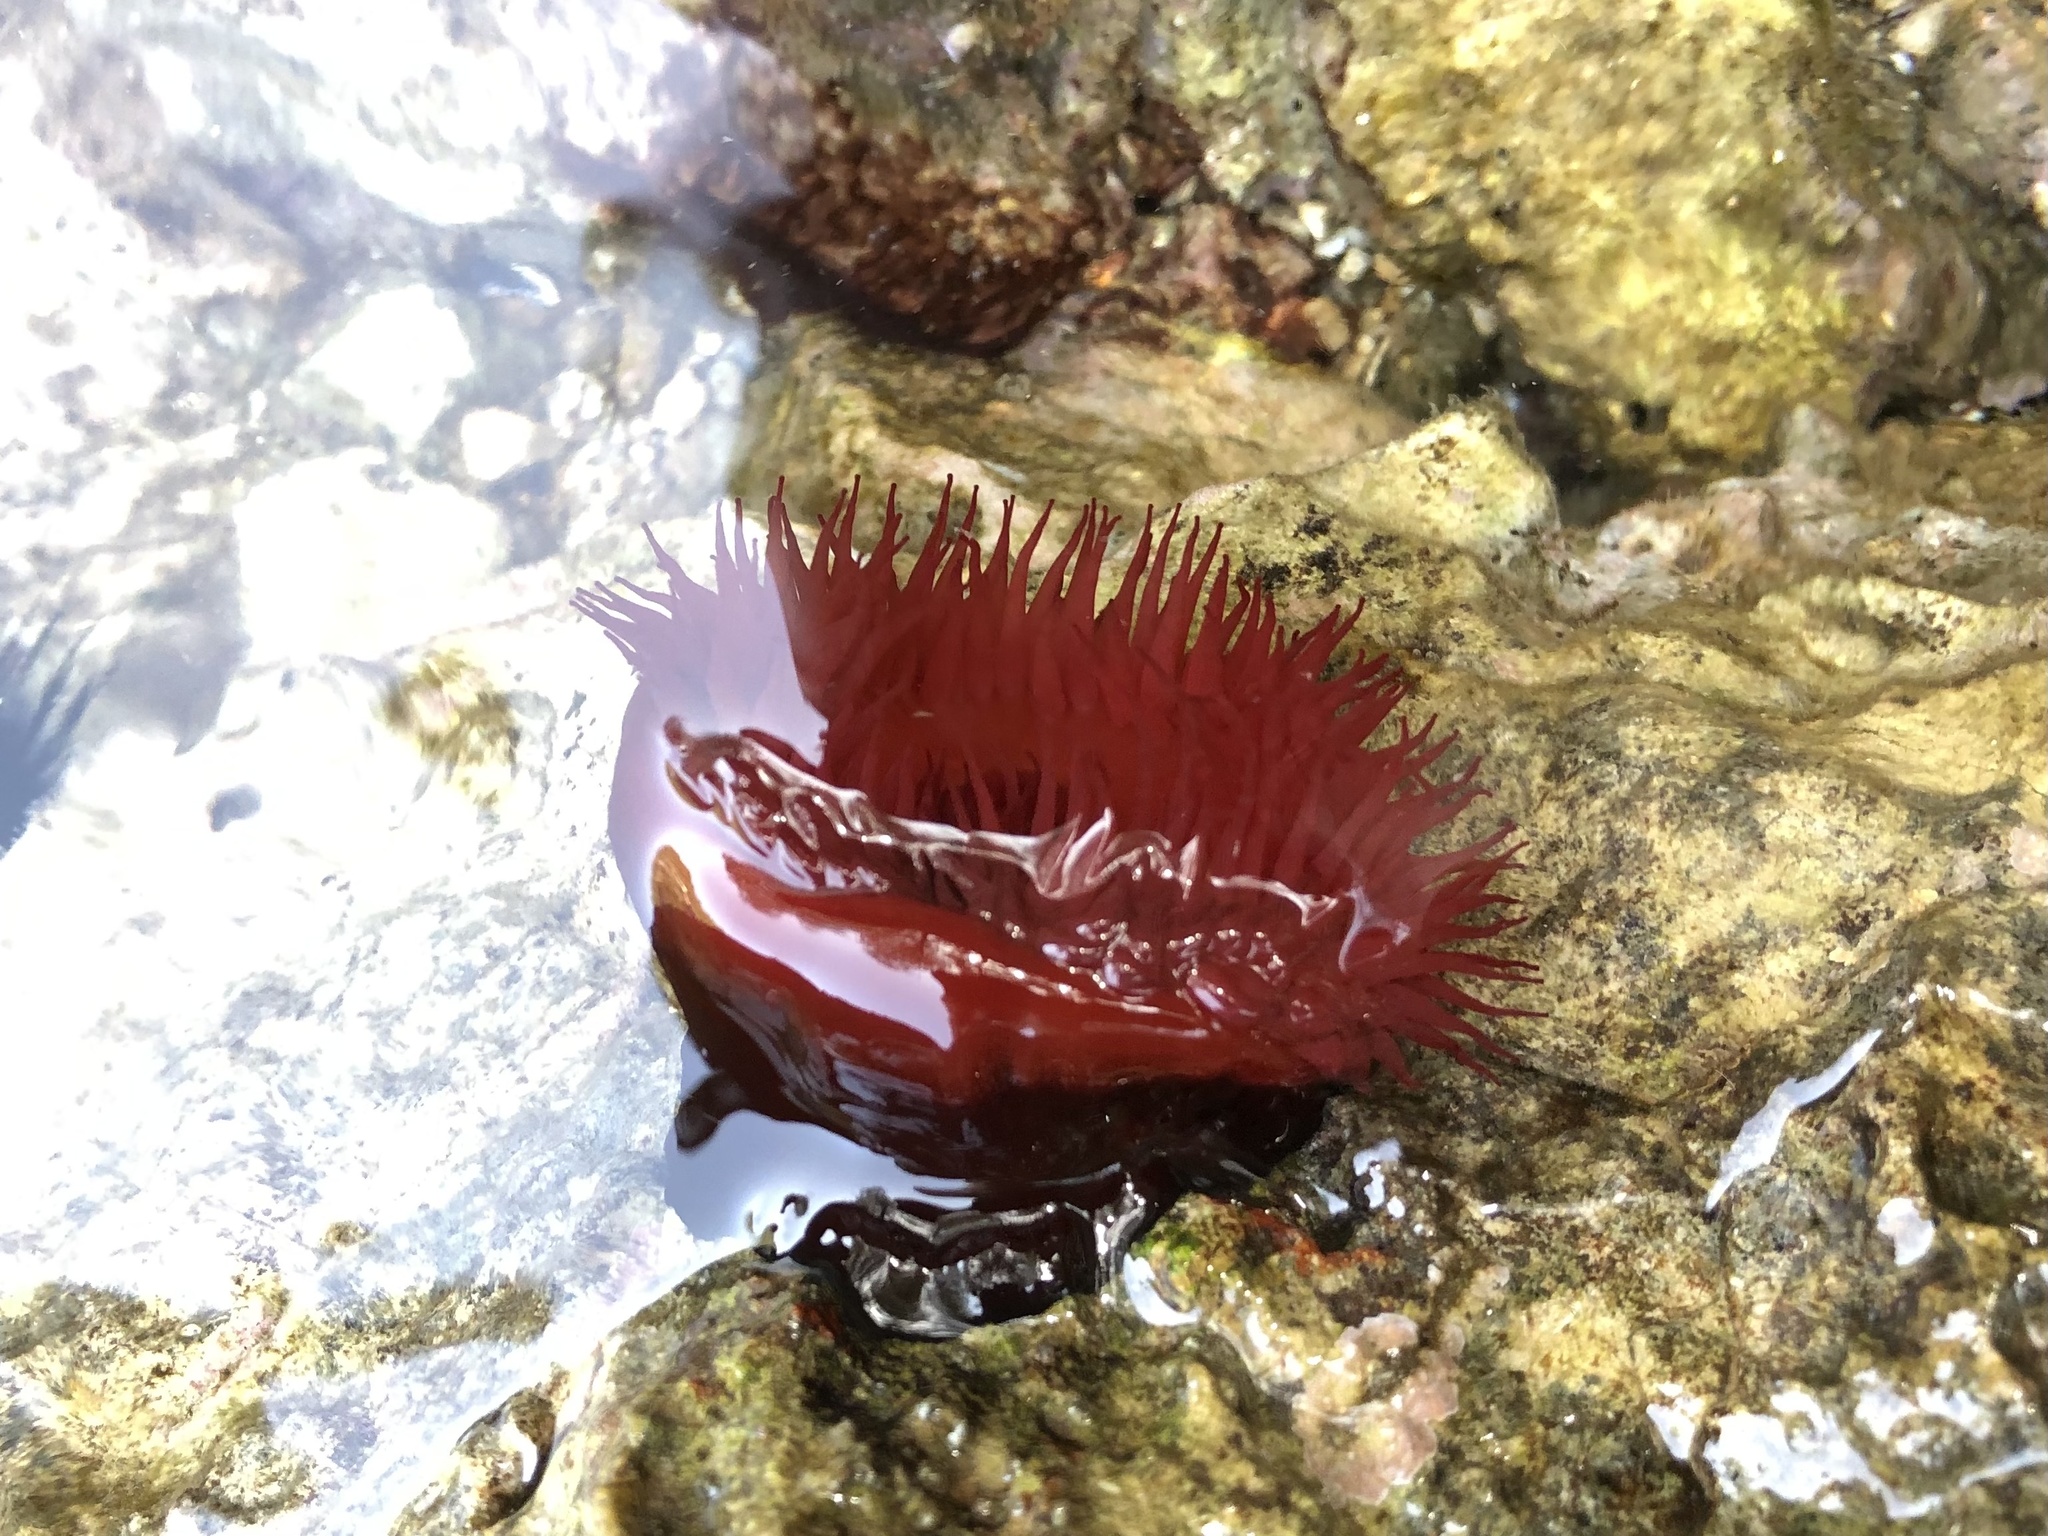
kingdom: Animalia
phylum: Cnidaria
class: Anthozoa
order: Actiniaria
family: Actiniidae
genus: Actinia
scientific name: Actinia mediterranea
